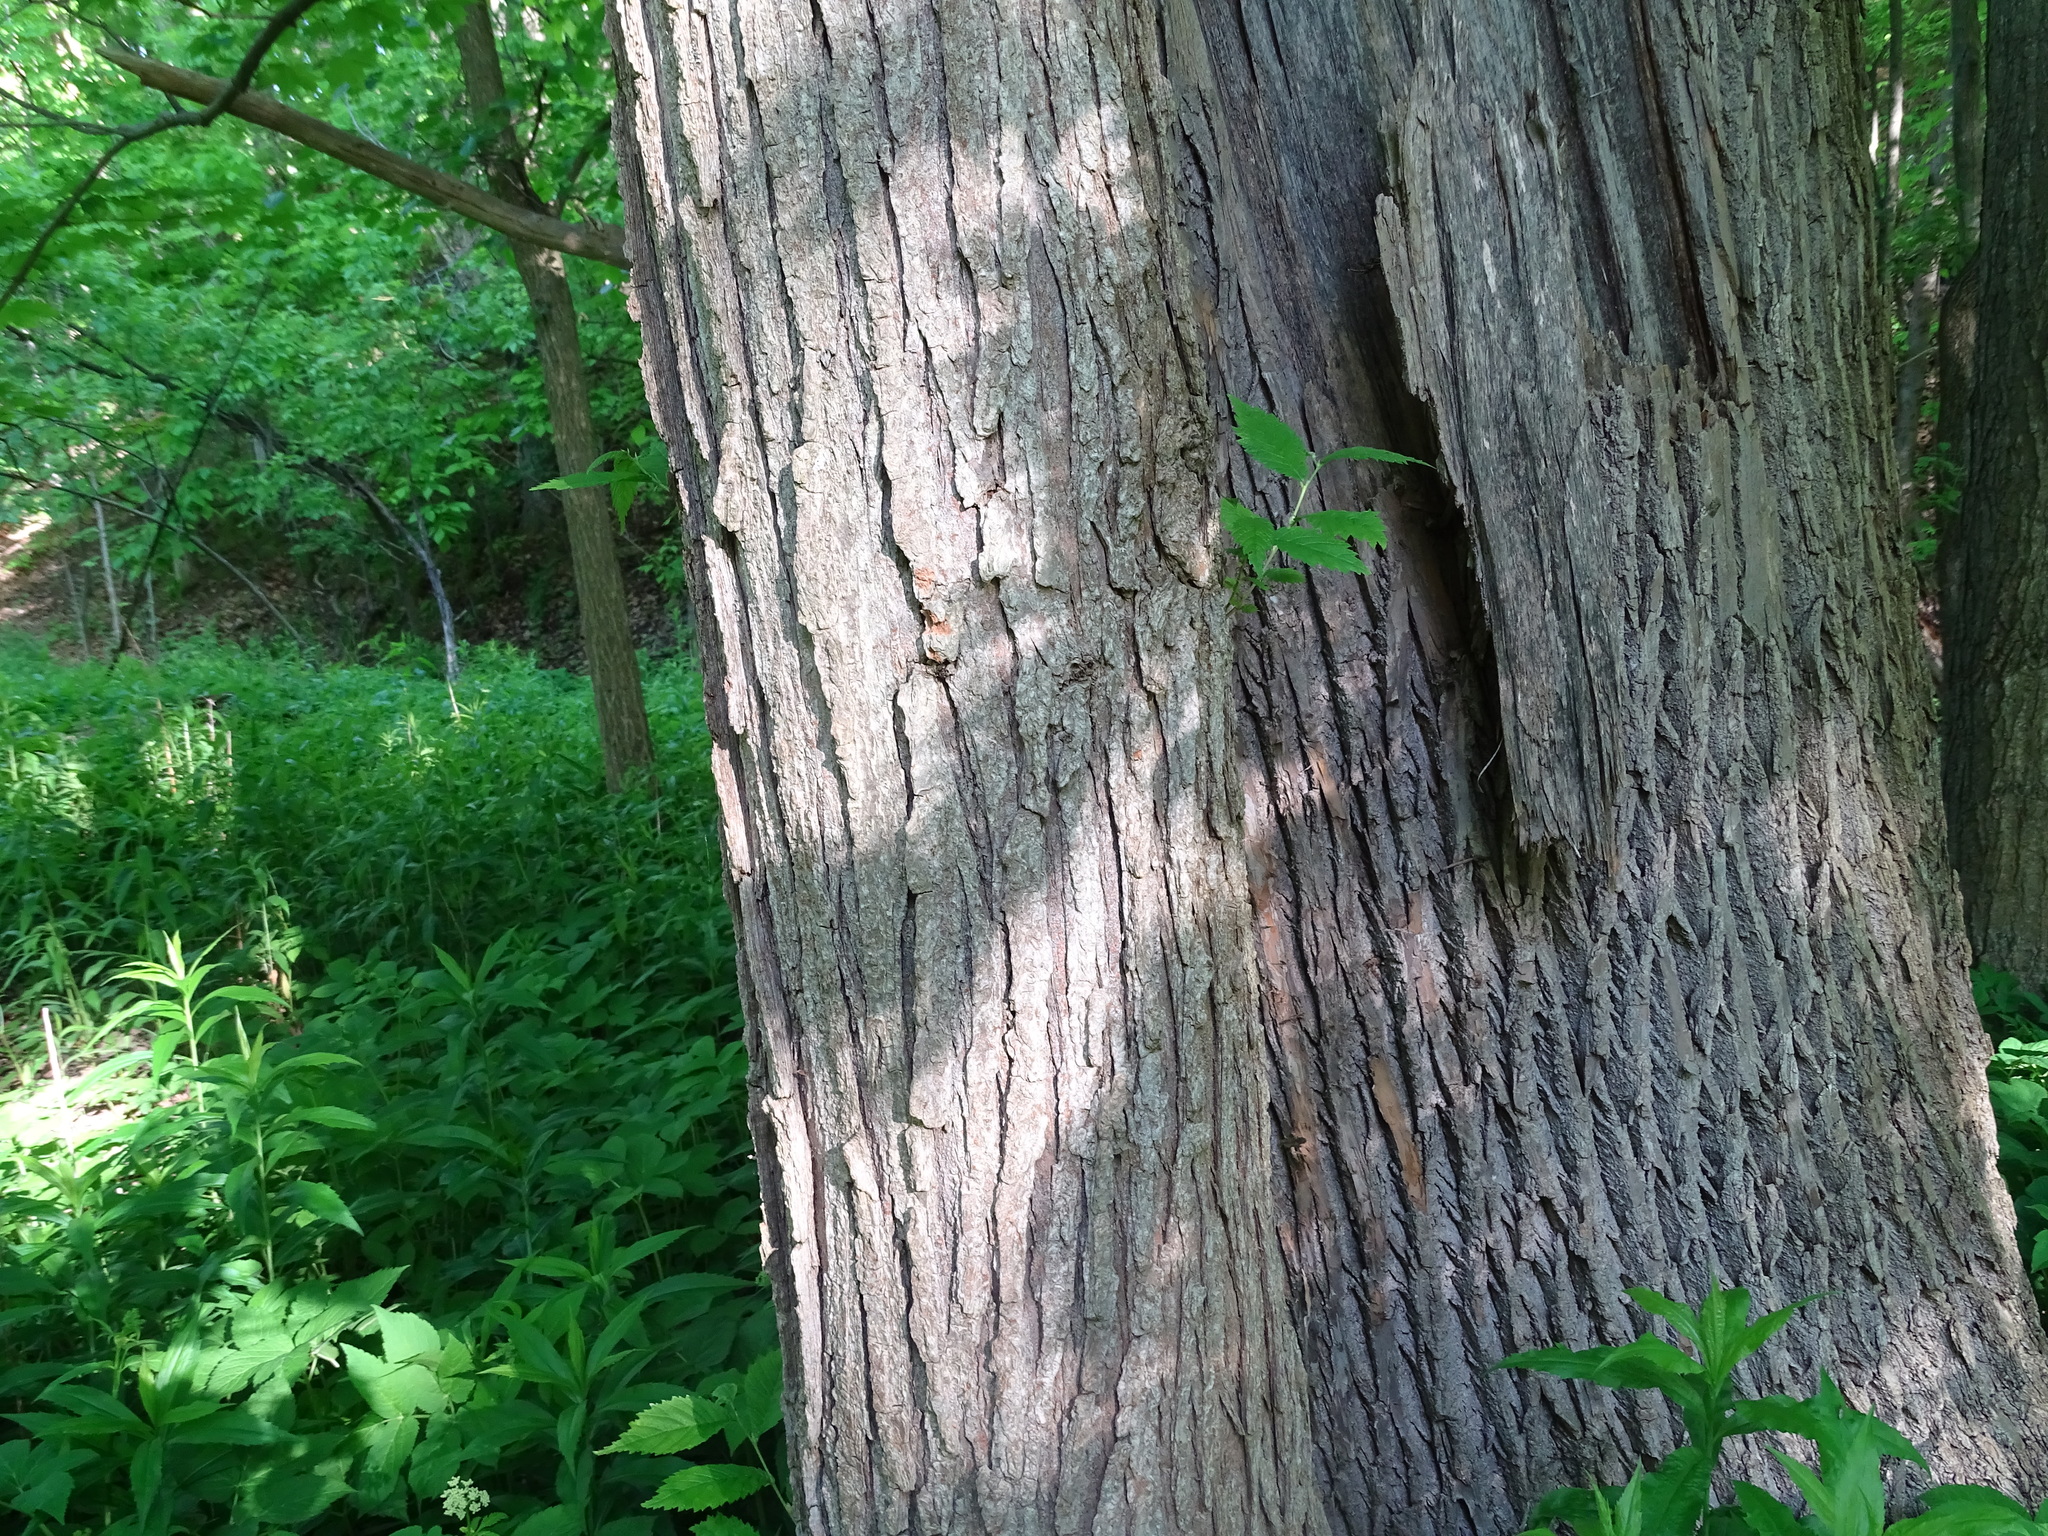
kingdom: Plantae
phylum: Tracheophyta
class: Magnoliopsida
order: Rosales
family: Ulmaceae
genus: Ulmus
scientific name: Ulmus rubra
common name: Slippery elm
